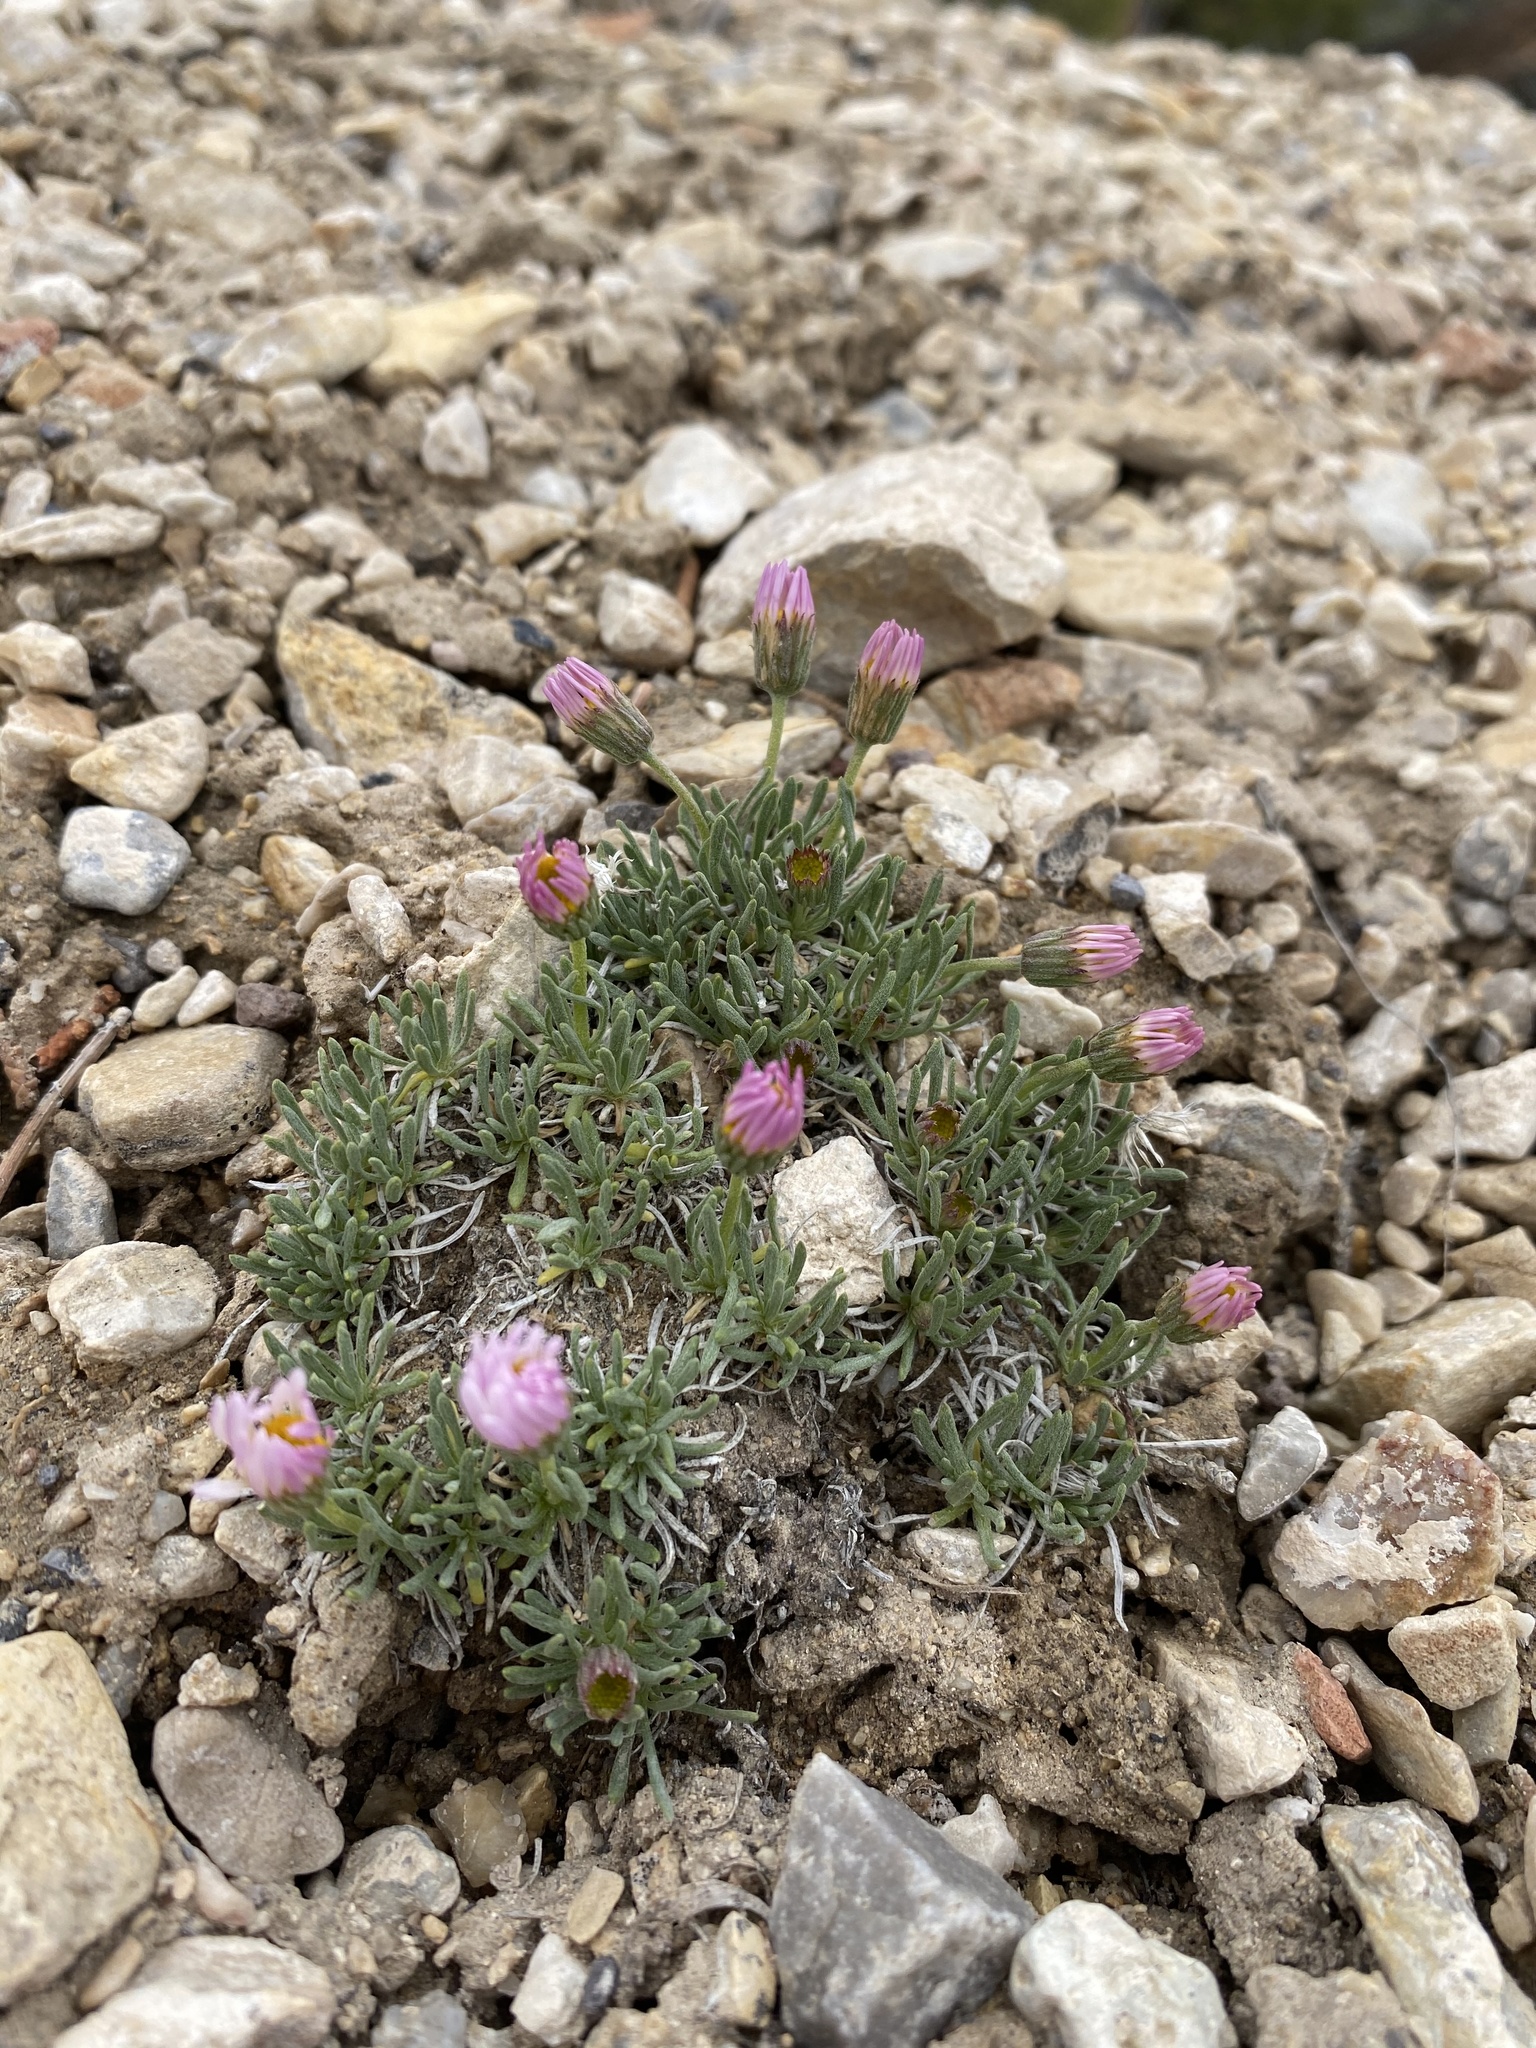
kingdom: Plantae
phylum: Tracheophyta
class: Magnoliopsida
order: Asterales
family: Asteraceae
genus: Erigeron
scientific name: Erigeron compactus
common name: Fern-leaf fleabane
